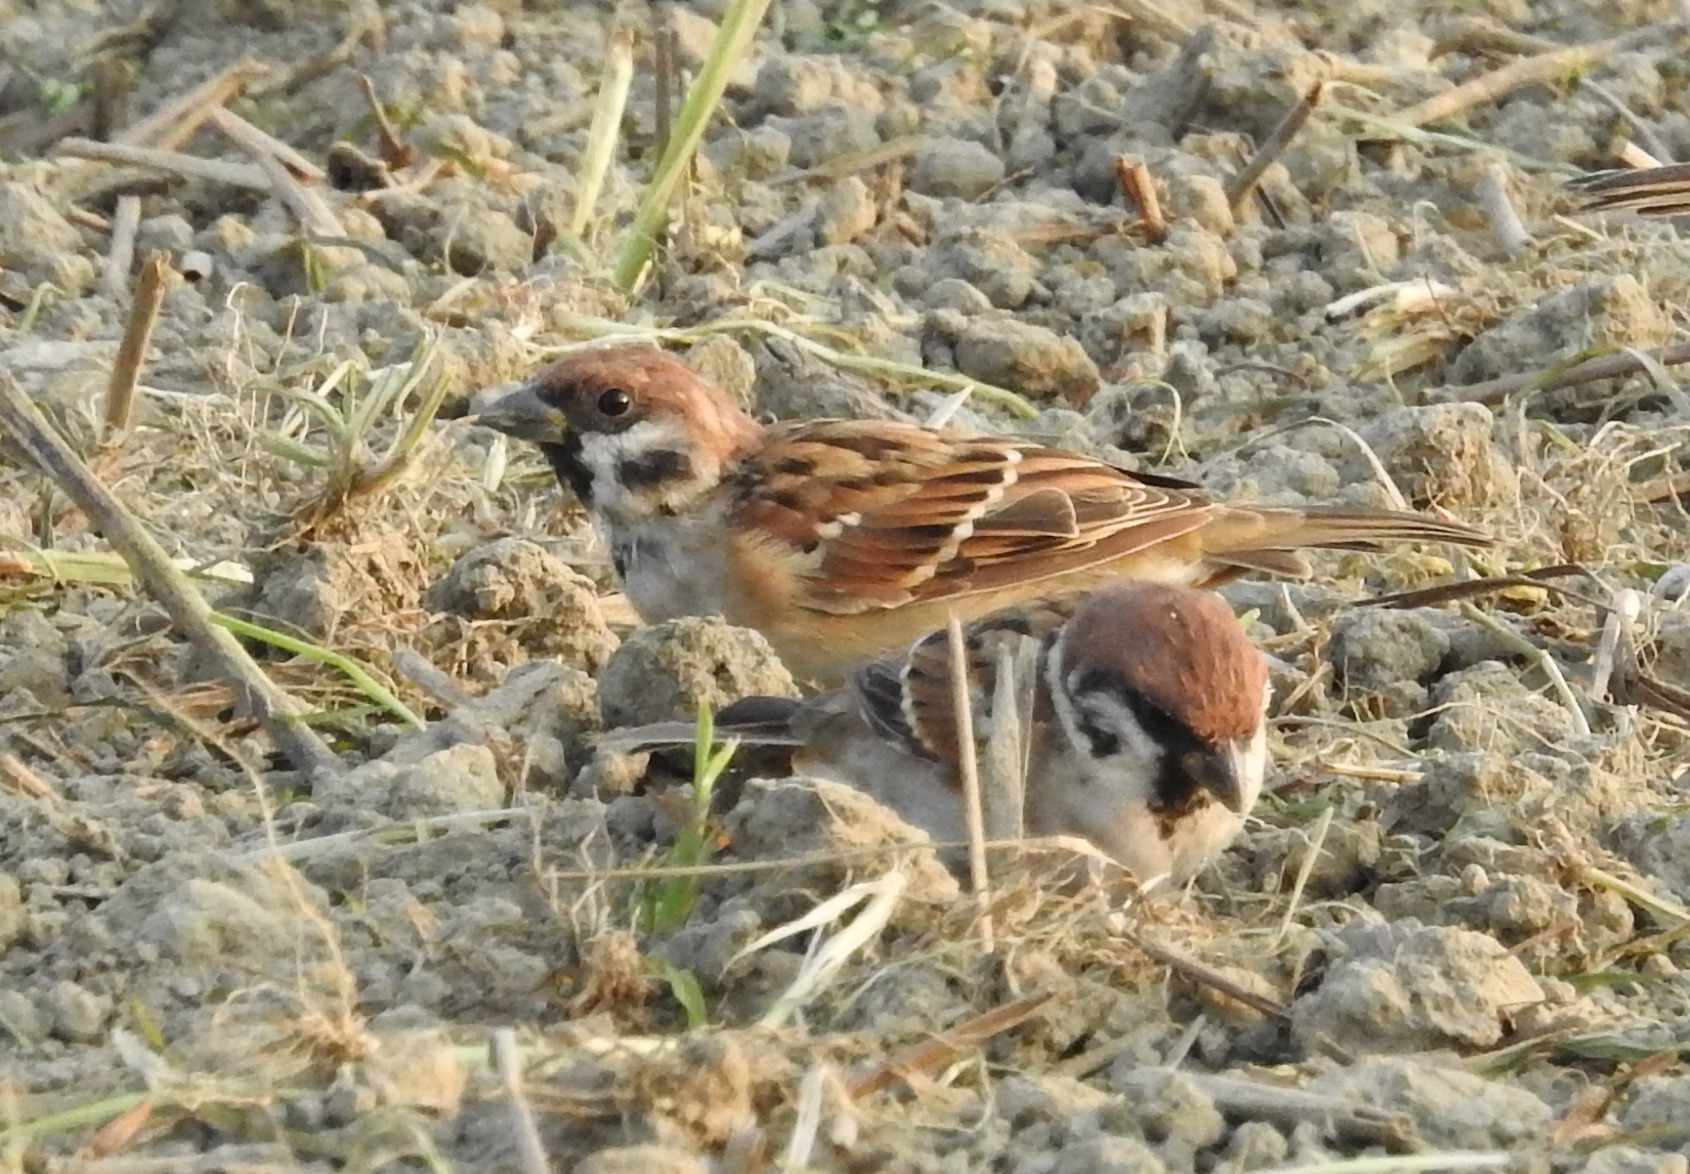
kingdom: Animalia
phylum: Chordata
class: Aves
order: Passeriformes
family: Passeridae
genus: Passer
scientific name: Passer montanus
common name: Eurasian tree sparrow
